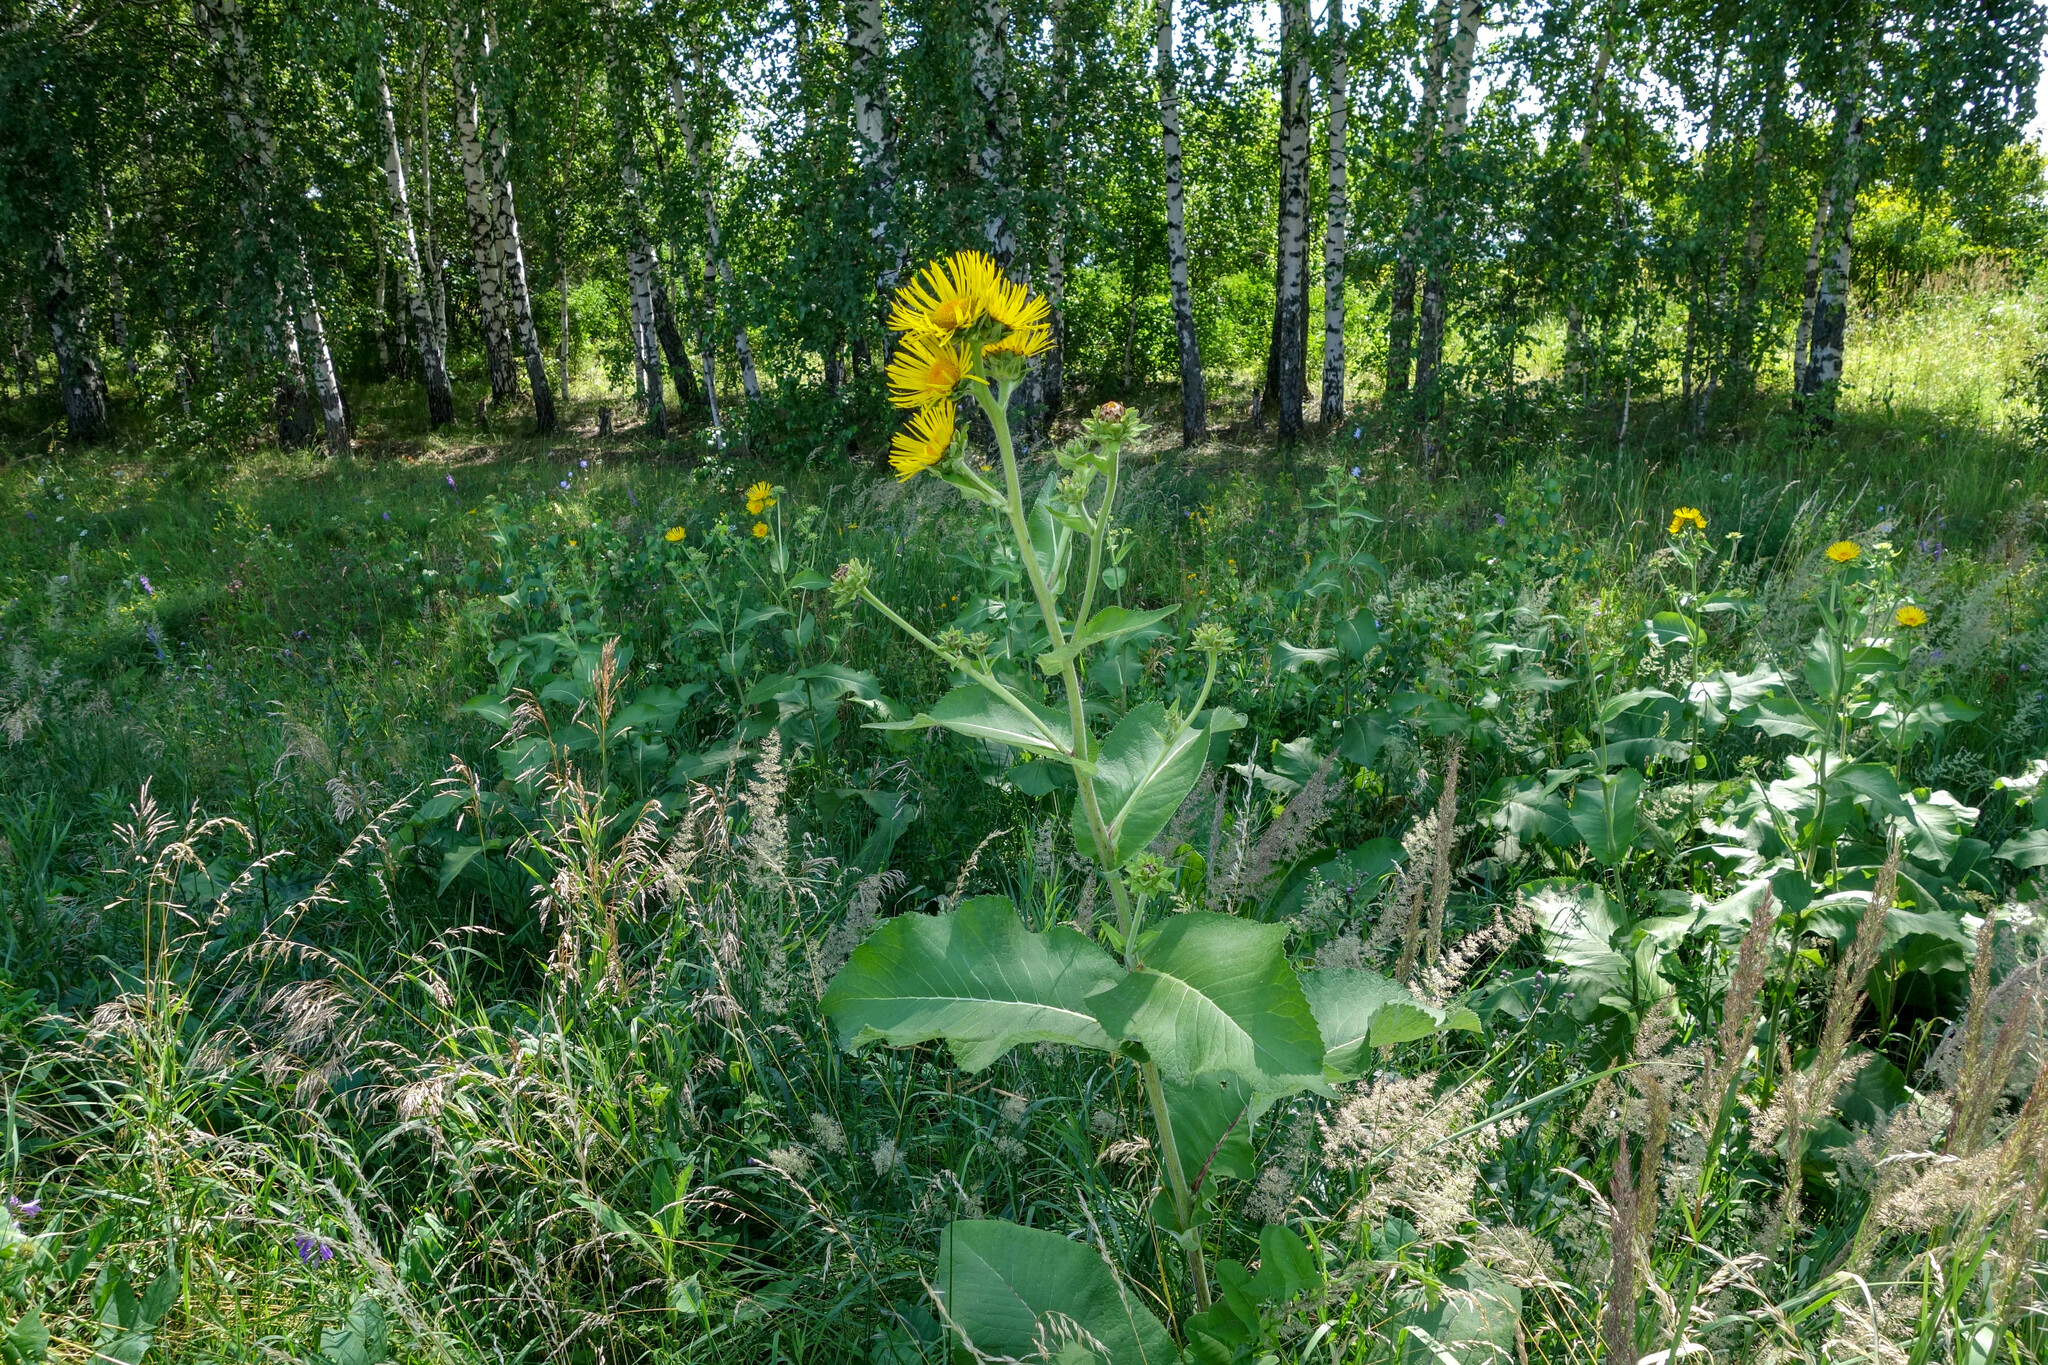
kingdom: Plantae
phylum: Tracheophyta
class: Magnoliopsida
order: Asterales
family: Asteraceae
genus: Inula
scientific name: Inula helenium
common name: Elecampane
